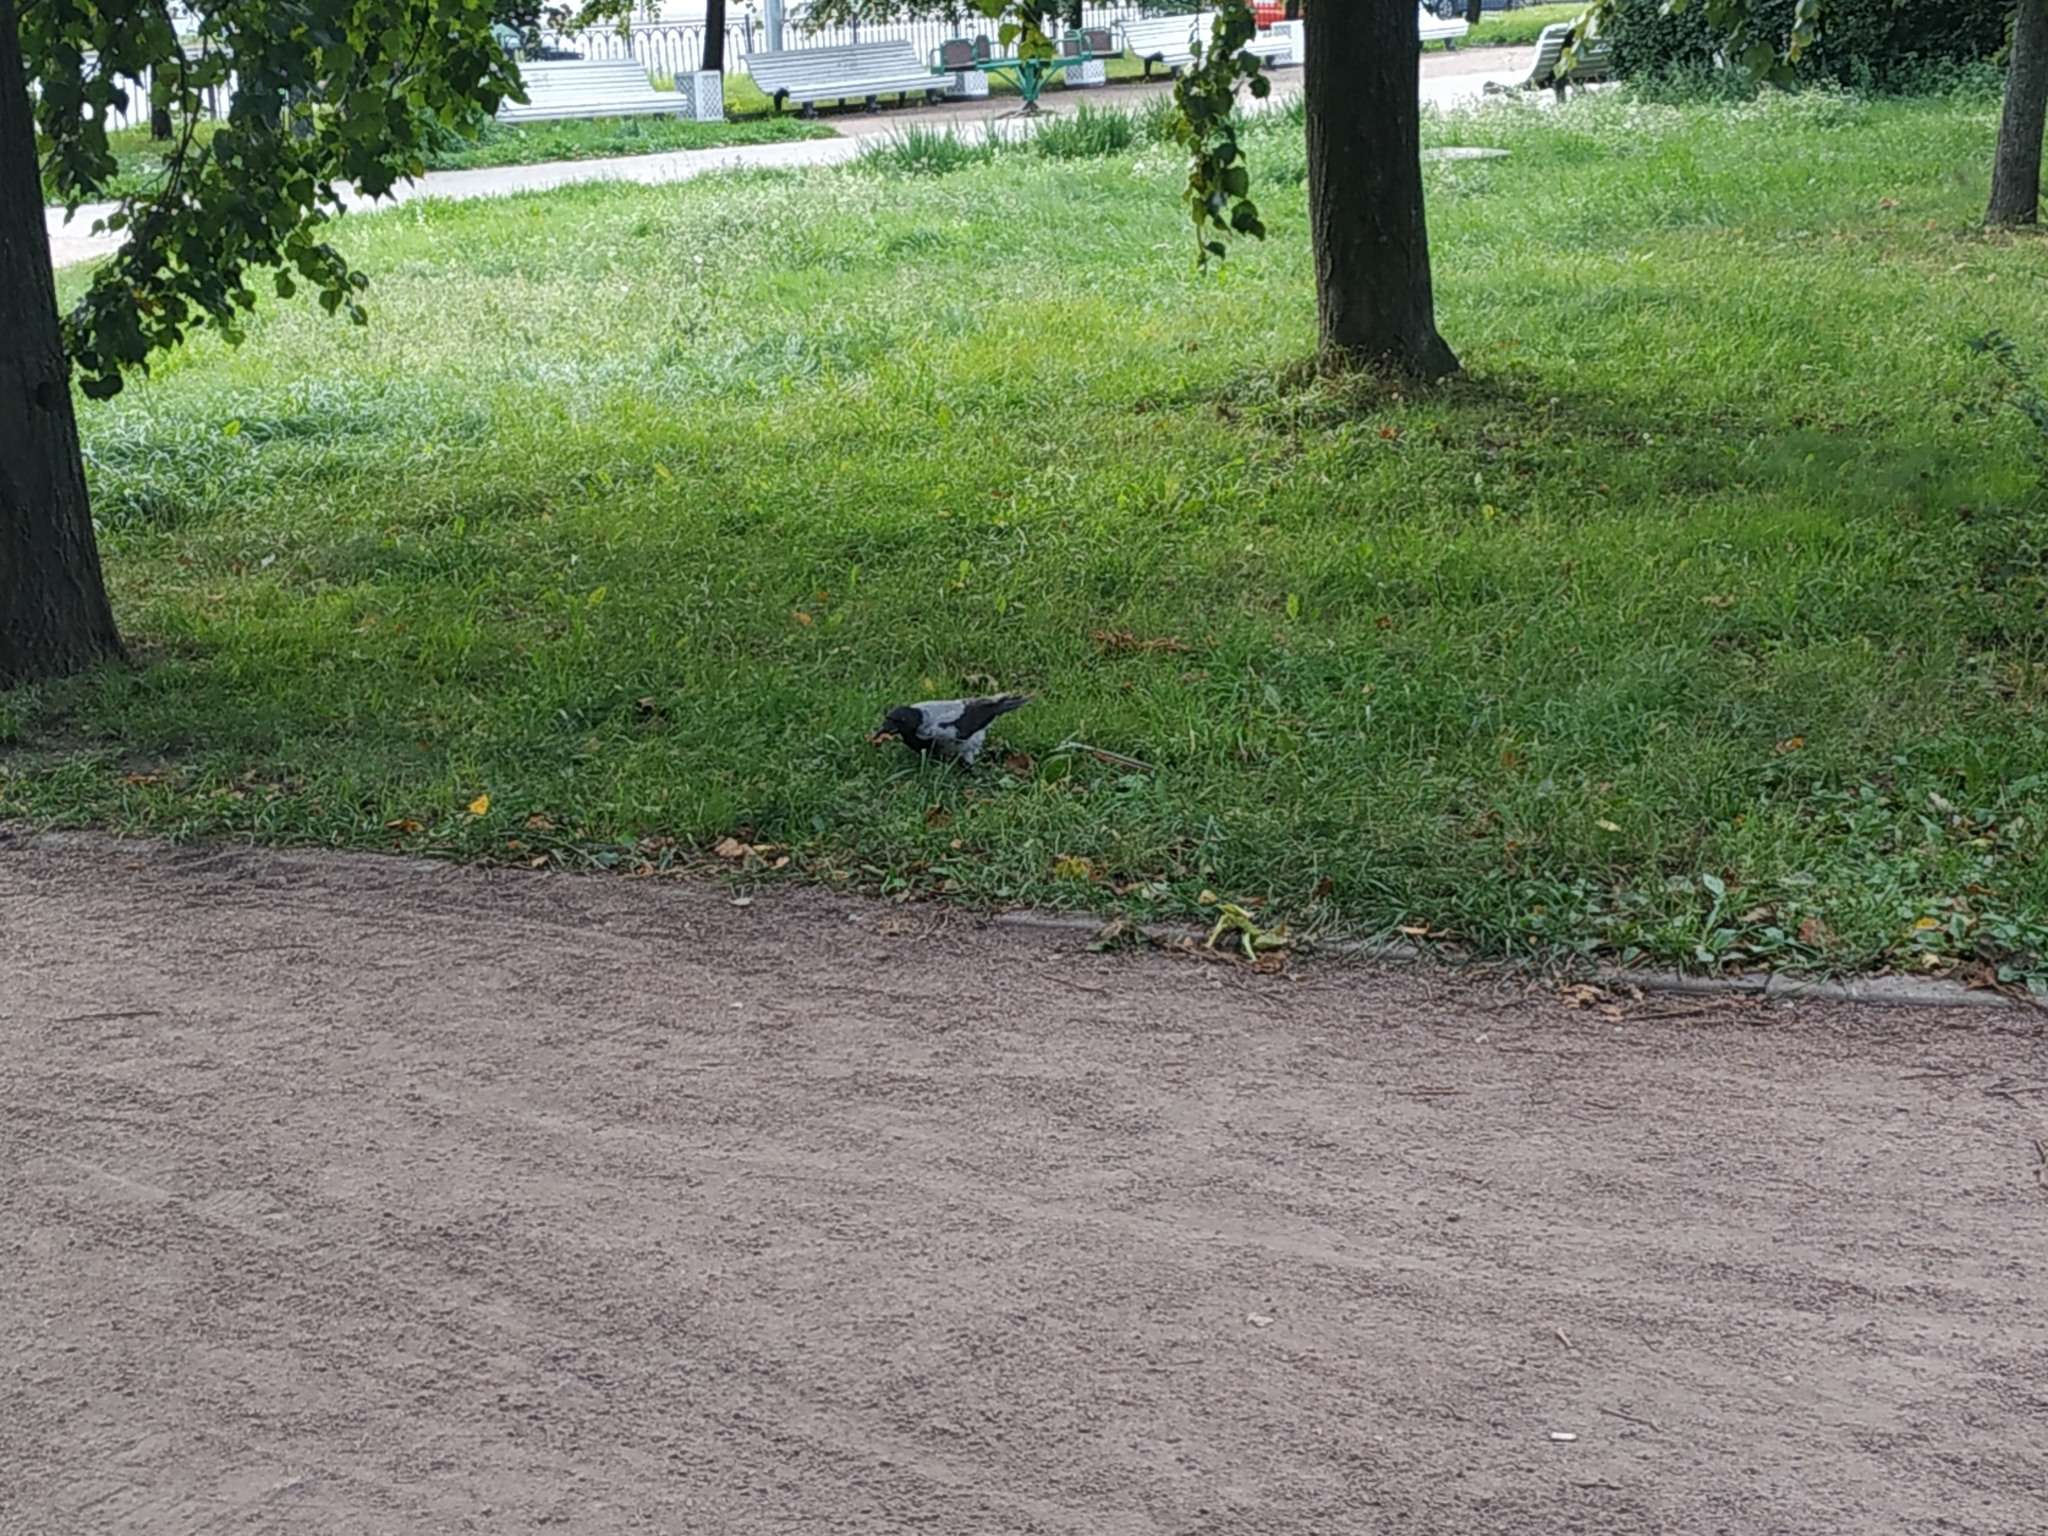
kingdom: Animalia
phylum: Chordata
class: Aves
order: Passeriformes
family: Corvidae
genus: Corvus
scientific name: Corvus cornix
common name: Hooded crow
